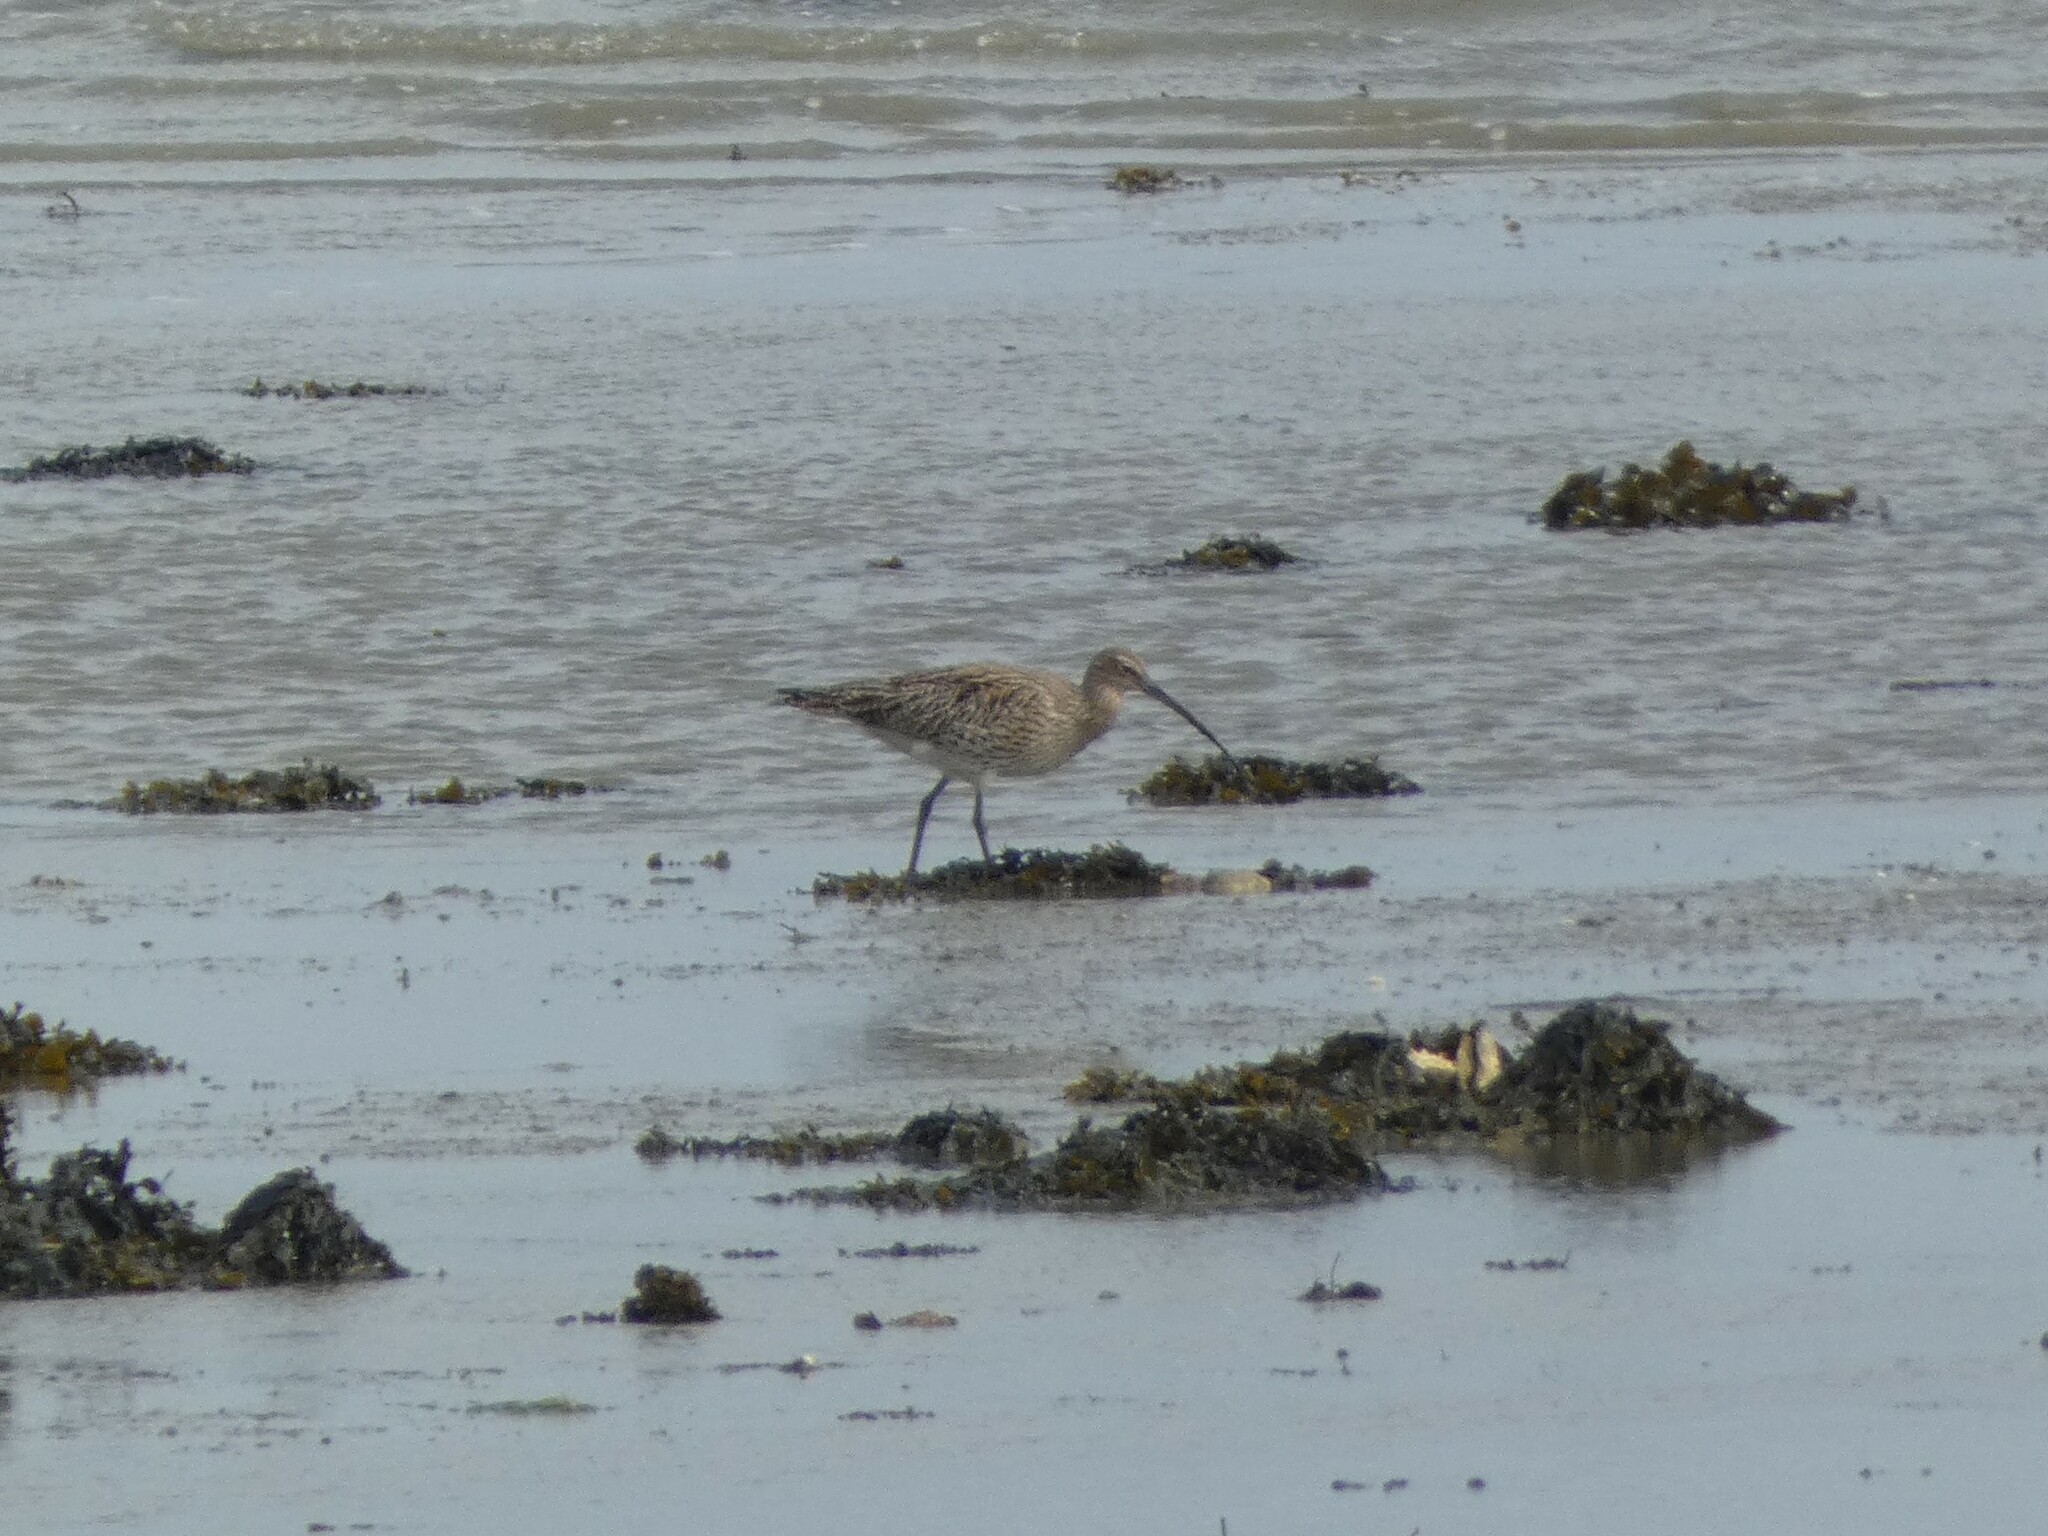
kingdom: Animalia
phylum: Chordata
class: Aves
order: Charadriiformes
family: Scolopacidae
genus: Numenius
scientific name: Numenius arquata
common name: Eurasian curlew
